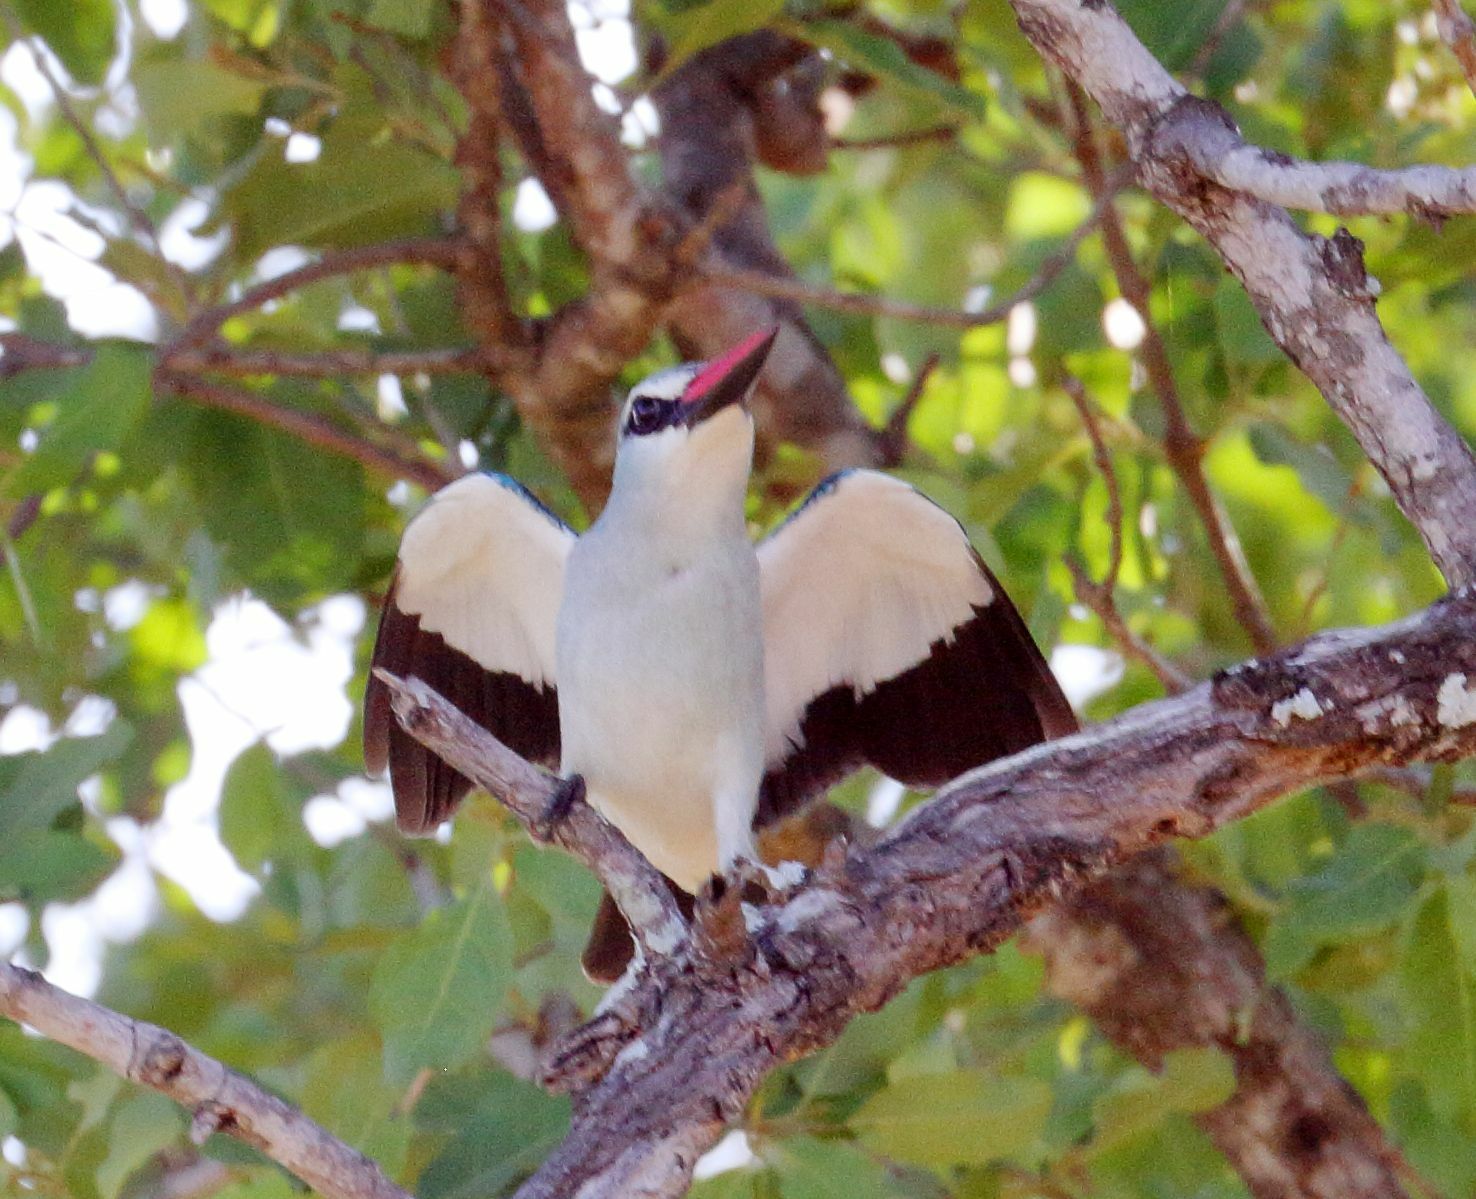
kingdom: Animalia
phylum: Chordata
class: Aves
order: Coraciiformes
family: Alcedinidae
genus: Halcyon
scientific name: Halcyon senegalensis
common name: Woodland kingfisher
